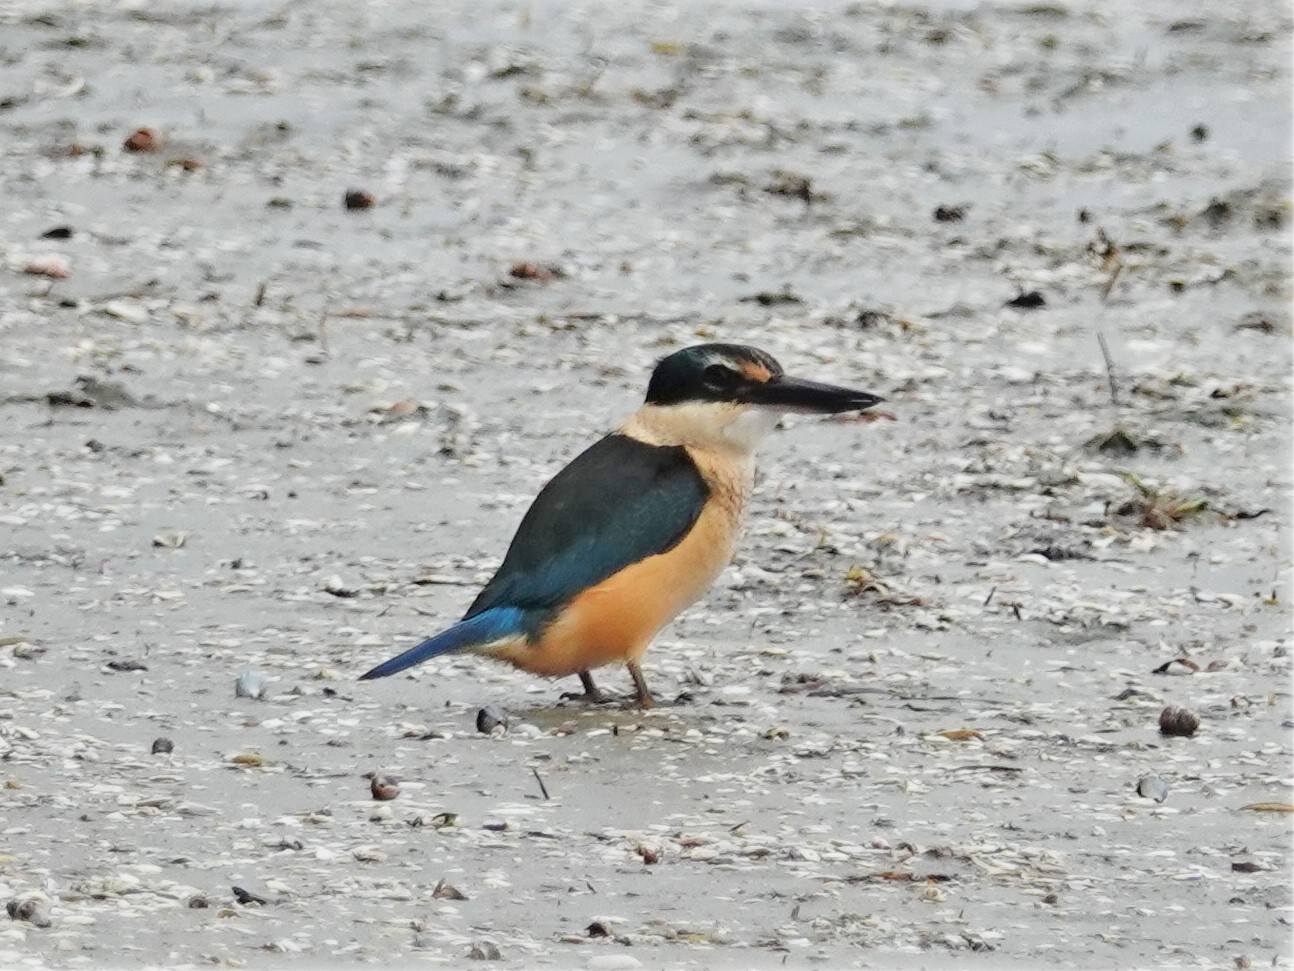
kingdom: Animalia
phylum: Chordata
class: Aves
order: Coraciiformes
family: Alcedinidae
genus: Todiramphus
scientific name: Todiramphus sanctus
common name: Sacred kingfisher
